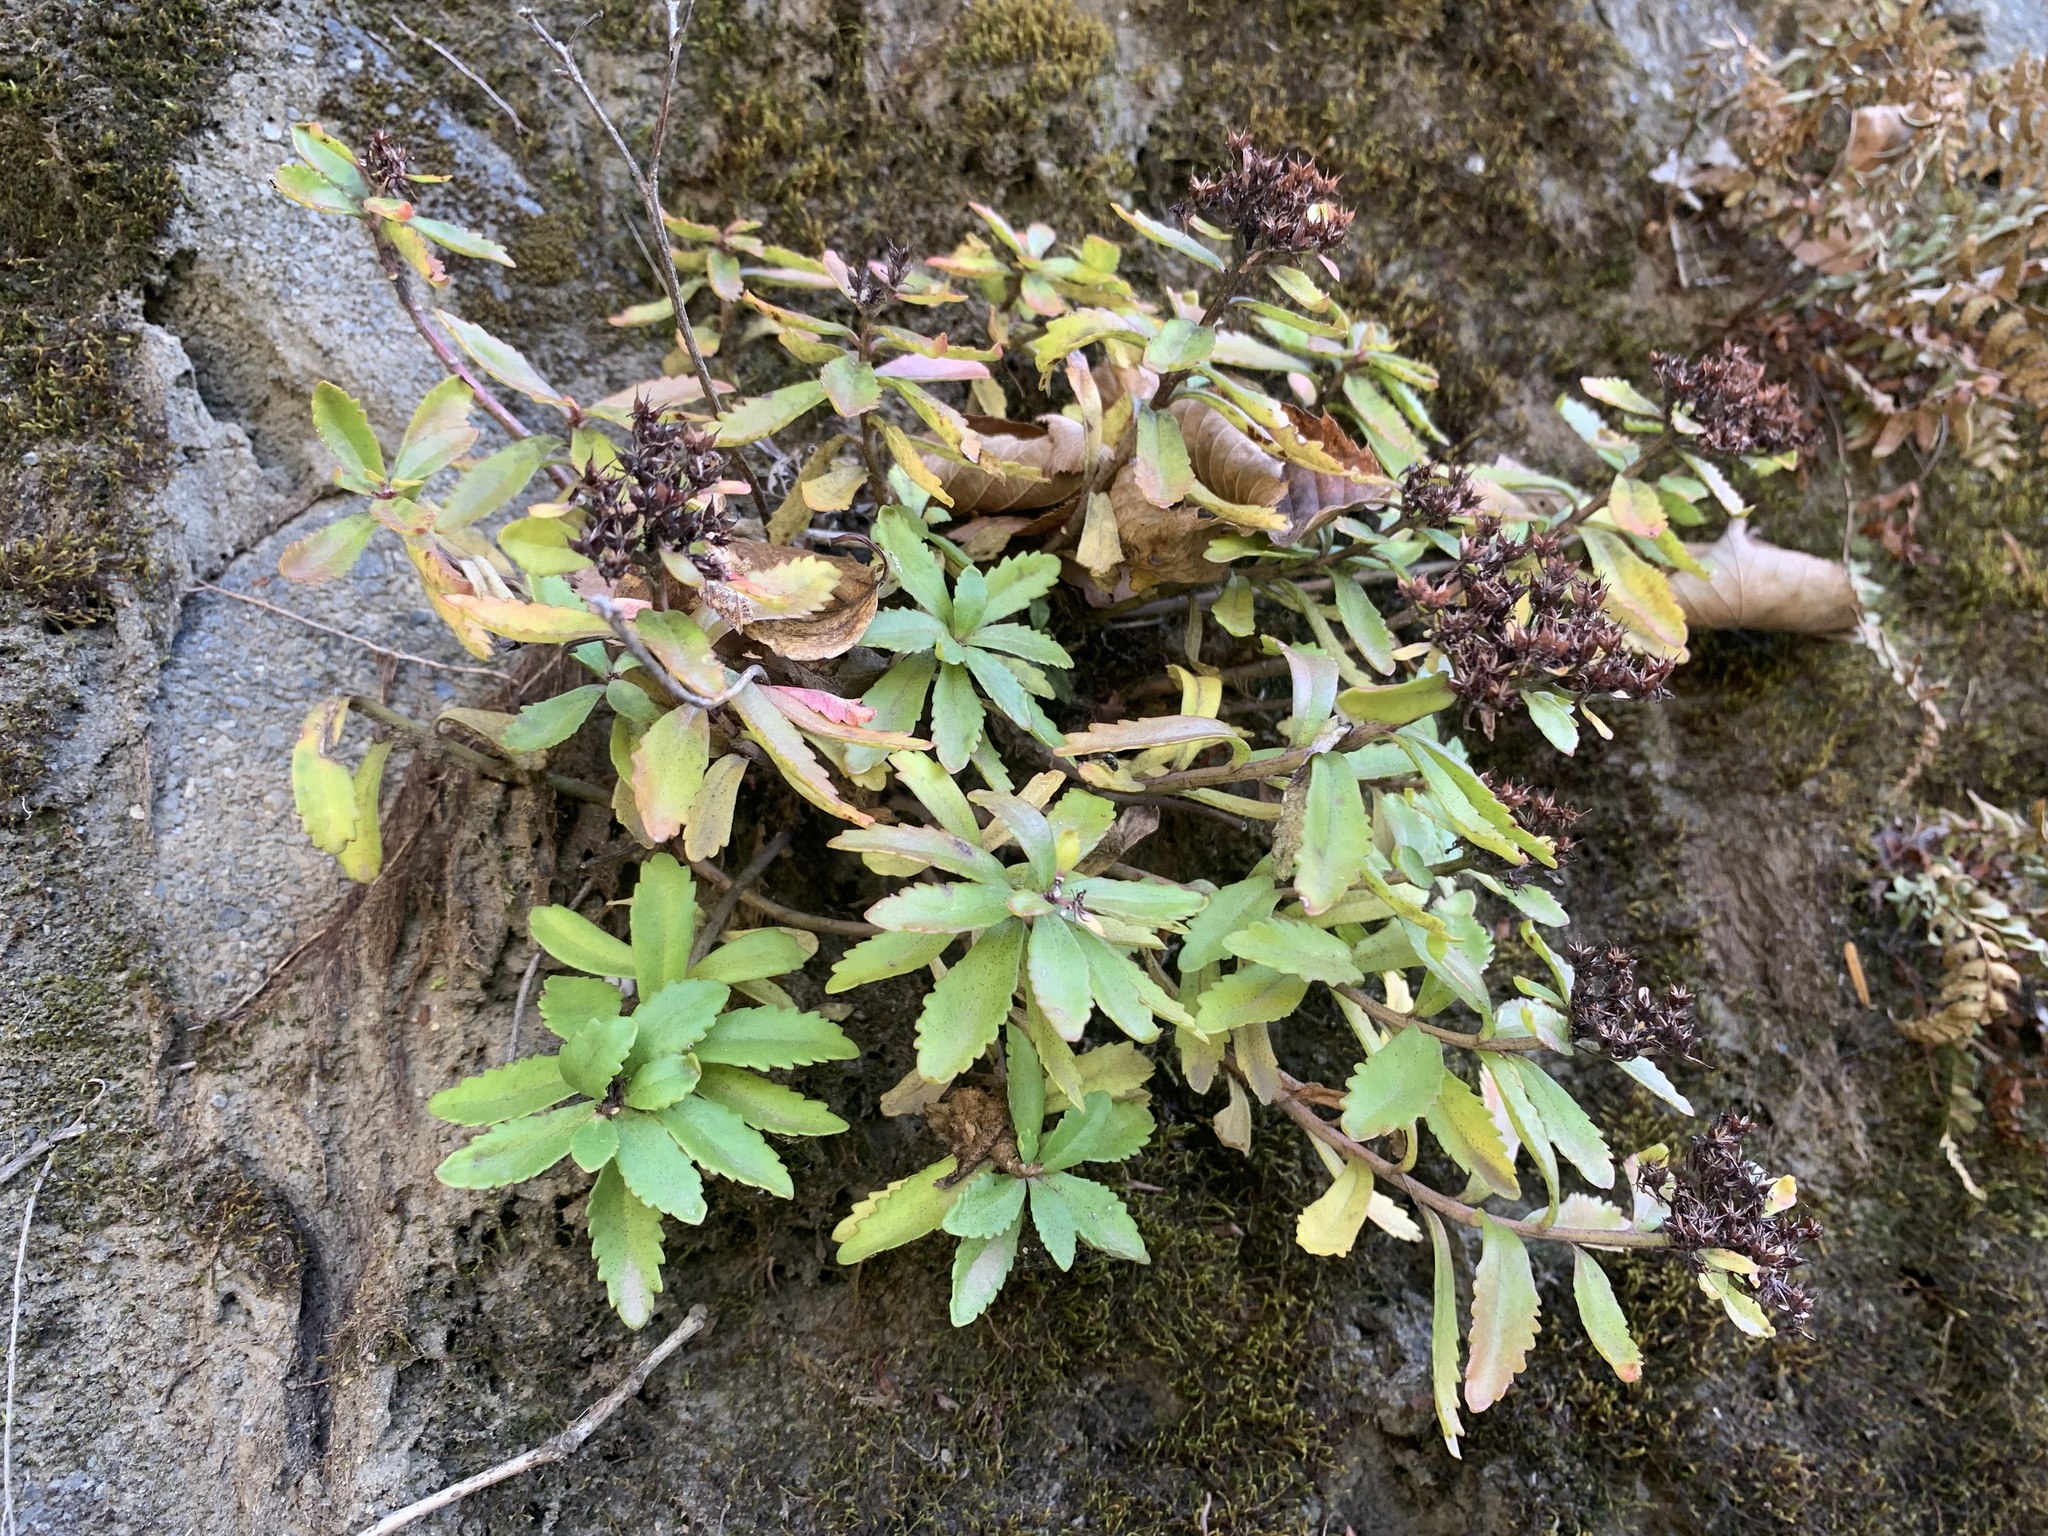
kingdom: Plantae
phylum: Tracheophyta
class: Magnoliopsida
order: Saxifragales
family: Crassulaceae
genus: Phedimus
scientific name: Phedimus aizoon
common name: Orpin aizoon
